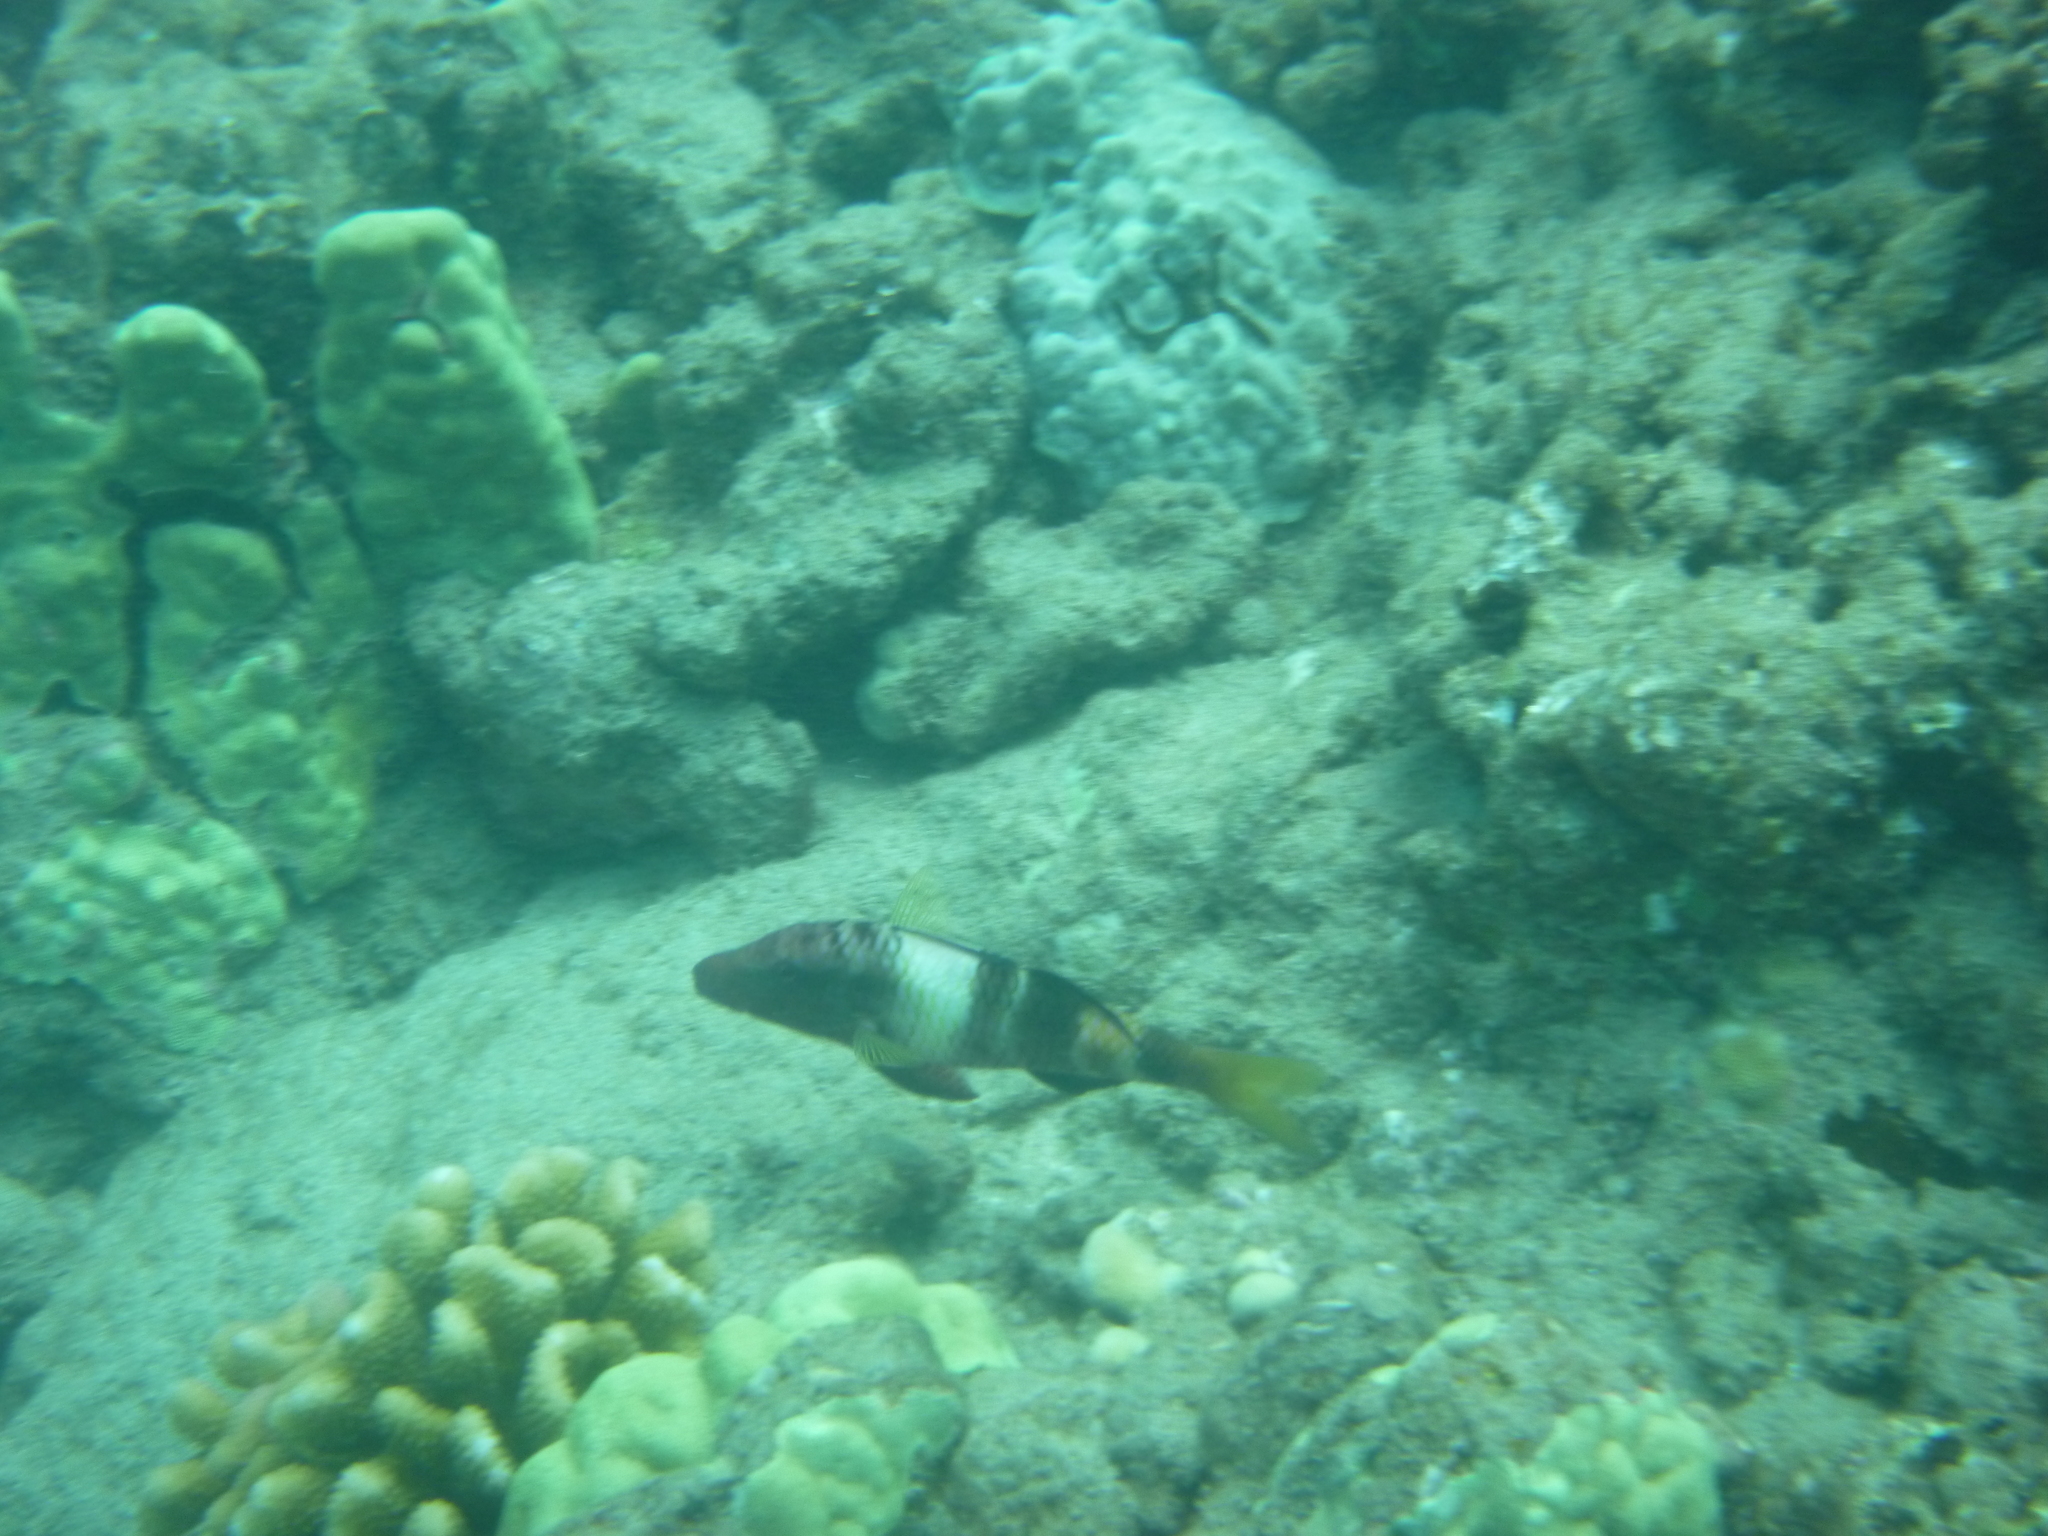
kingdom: Animalia
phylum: Chordata
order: Perciformes
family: Mullidae
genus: Parupeneus
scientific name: Parupeneus multifasciatus
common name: Manybar goatfish
